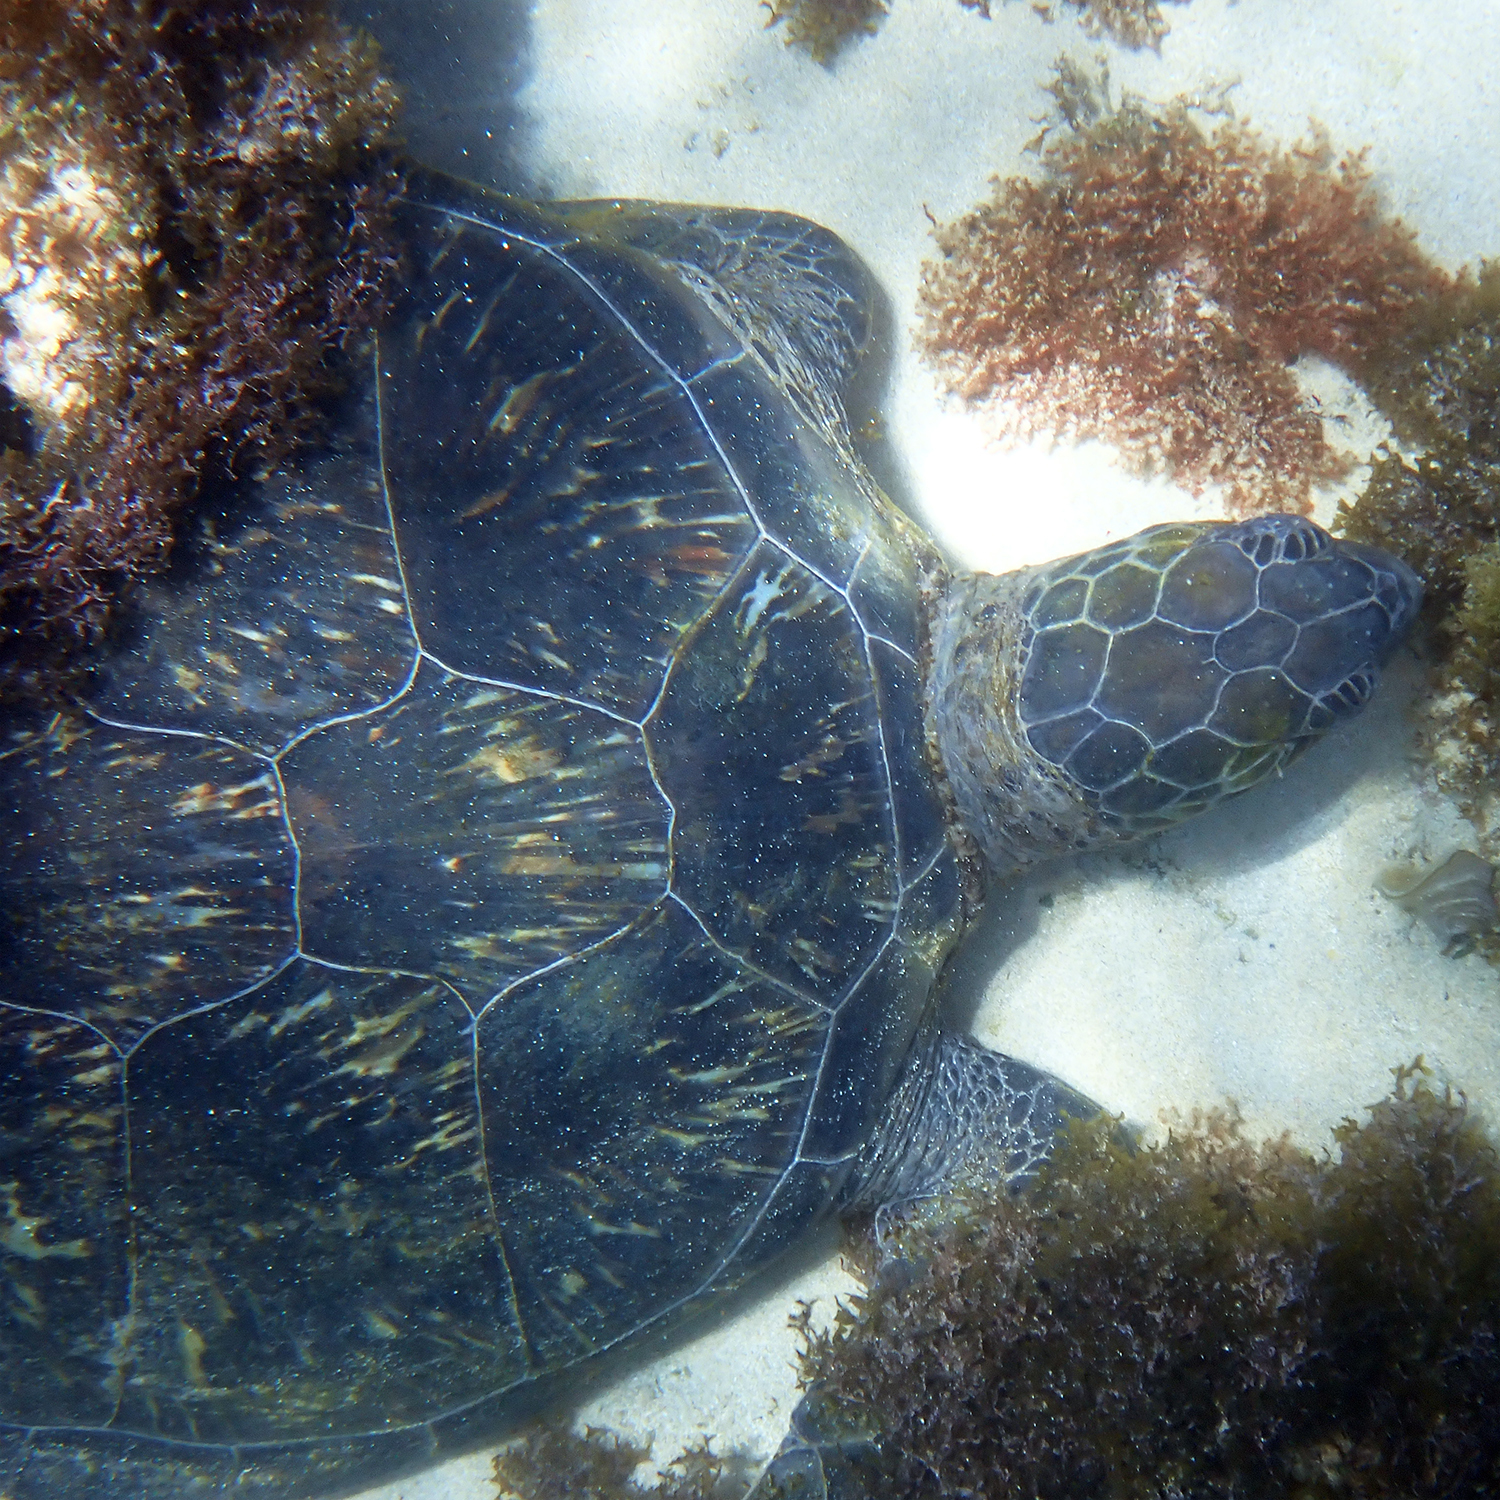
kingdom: Animalia
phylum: Chordata
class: Testudines
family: Cheloniidae
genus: Chelonia
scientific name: Chelonia mydas
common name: Green turtle
